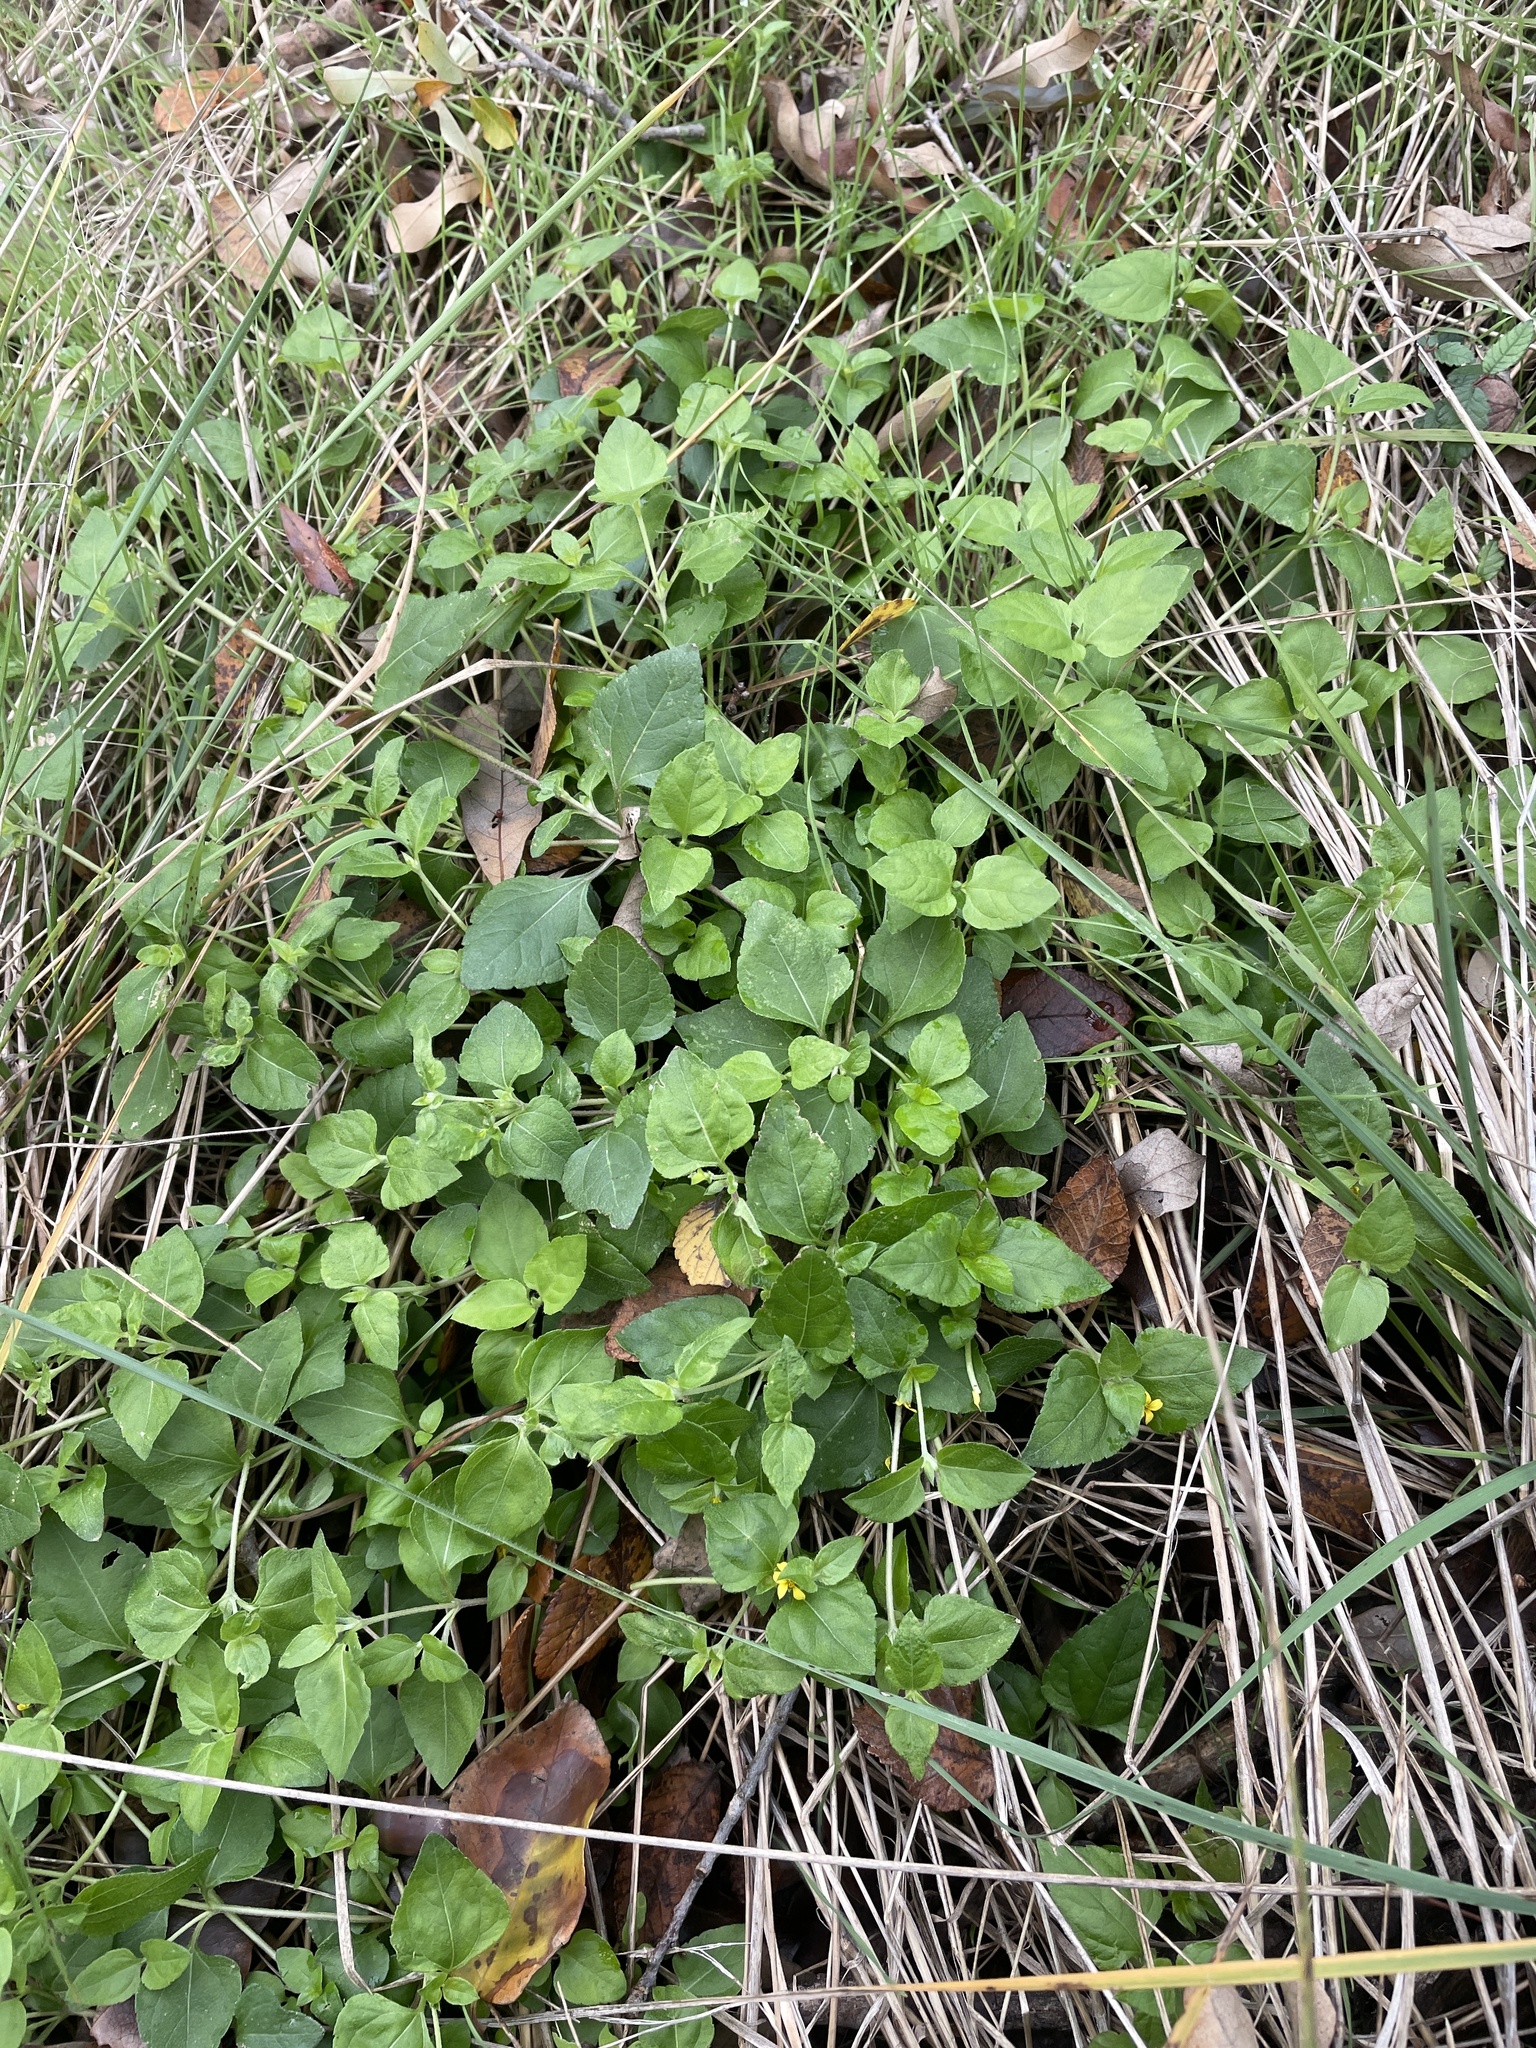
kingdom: Plantae
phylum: Tracheophyta
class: Magnoliopsida
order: Asterales
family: Asteraceae
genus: Calyptocarpus
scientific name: Calyptocarpus vialis
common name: Straggler daisy
